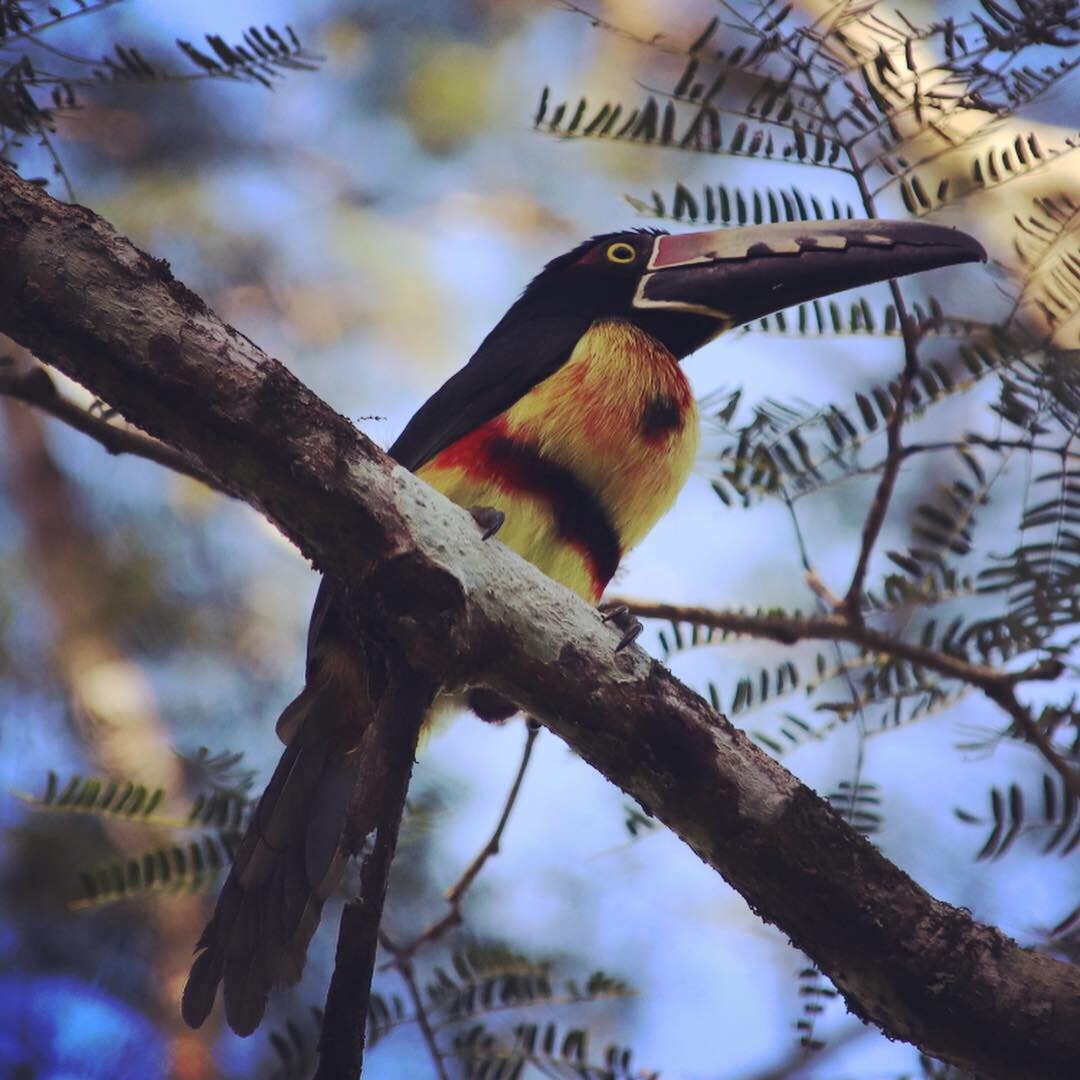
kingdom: Animalia
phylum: Chordata
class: Aves
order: Piciformes
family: Ramphastidae
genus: Pteroglossus
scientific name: Pteroglossus torquatus
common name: Collared aracari
